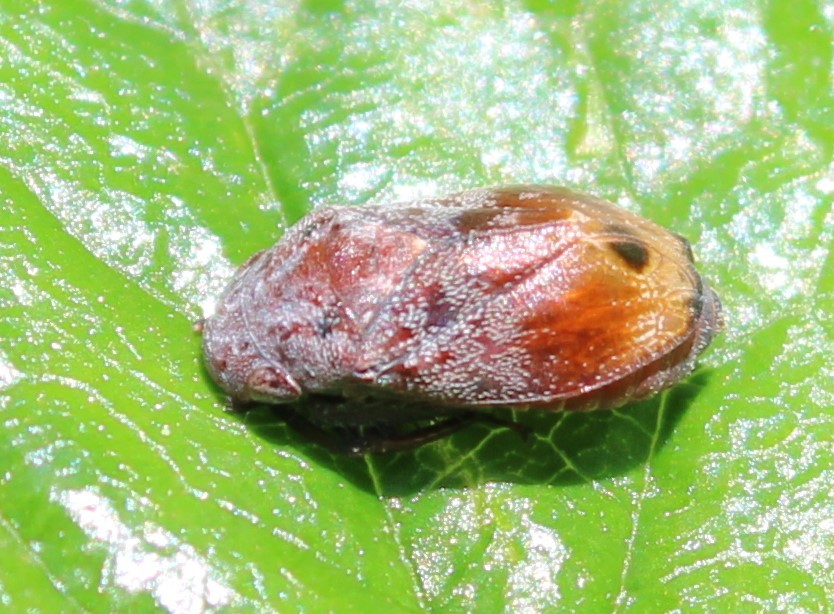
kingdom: Animalia
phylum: Arthropoda
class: Insecta
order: Hemiptera
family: Cicadellidae
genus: Penthimia
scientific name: Penthimia americana
